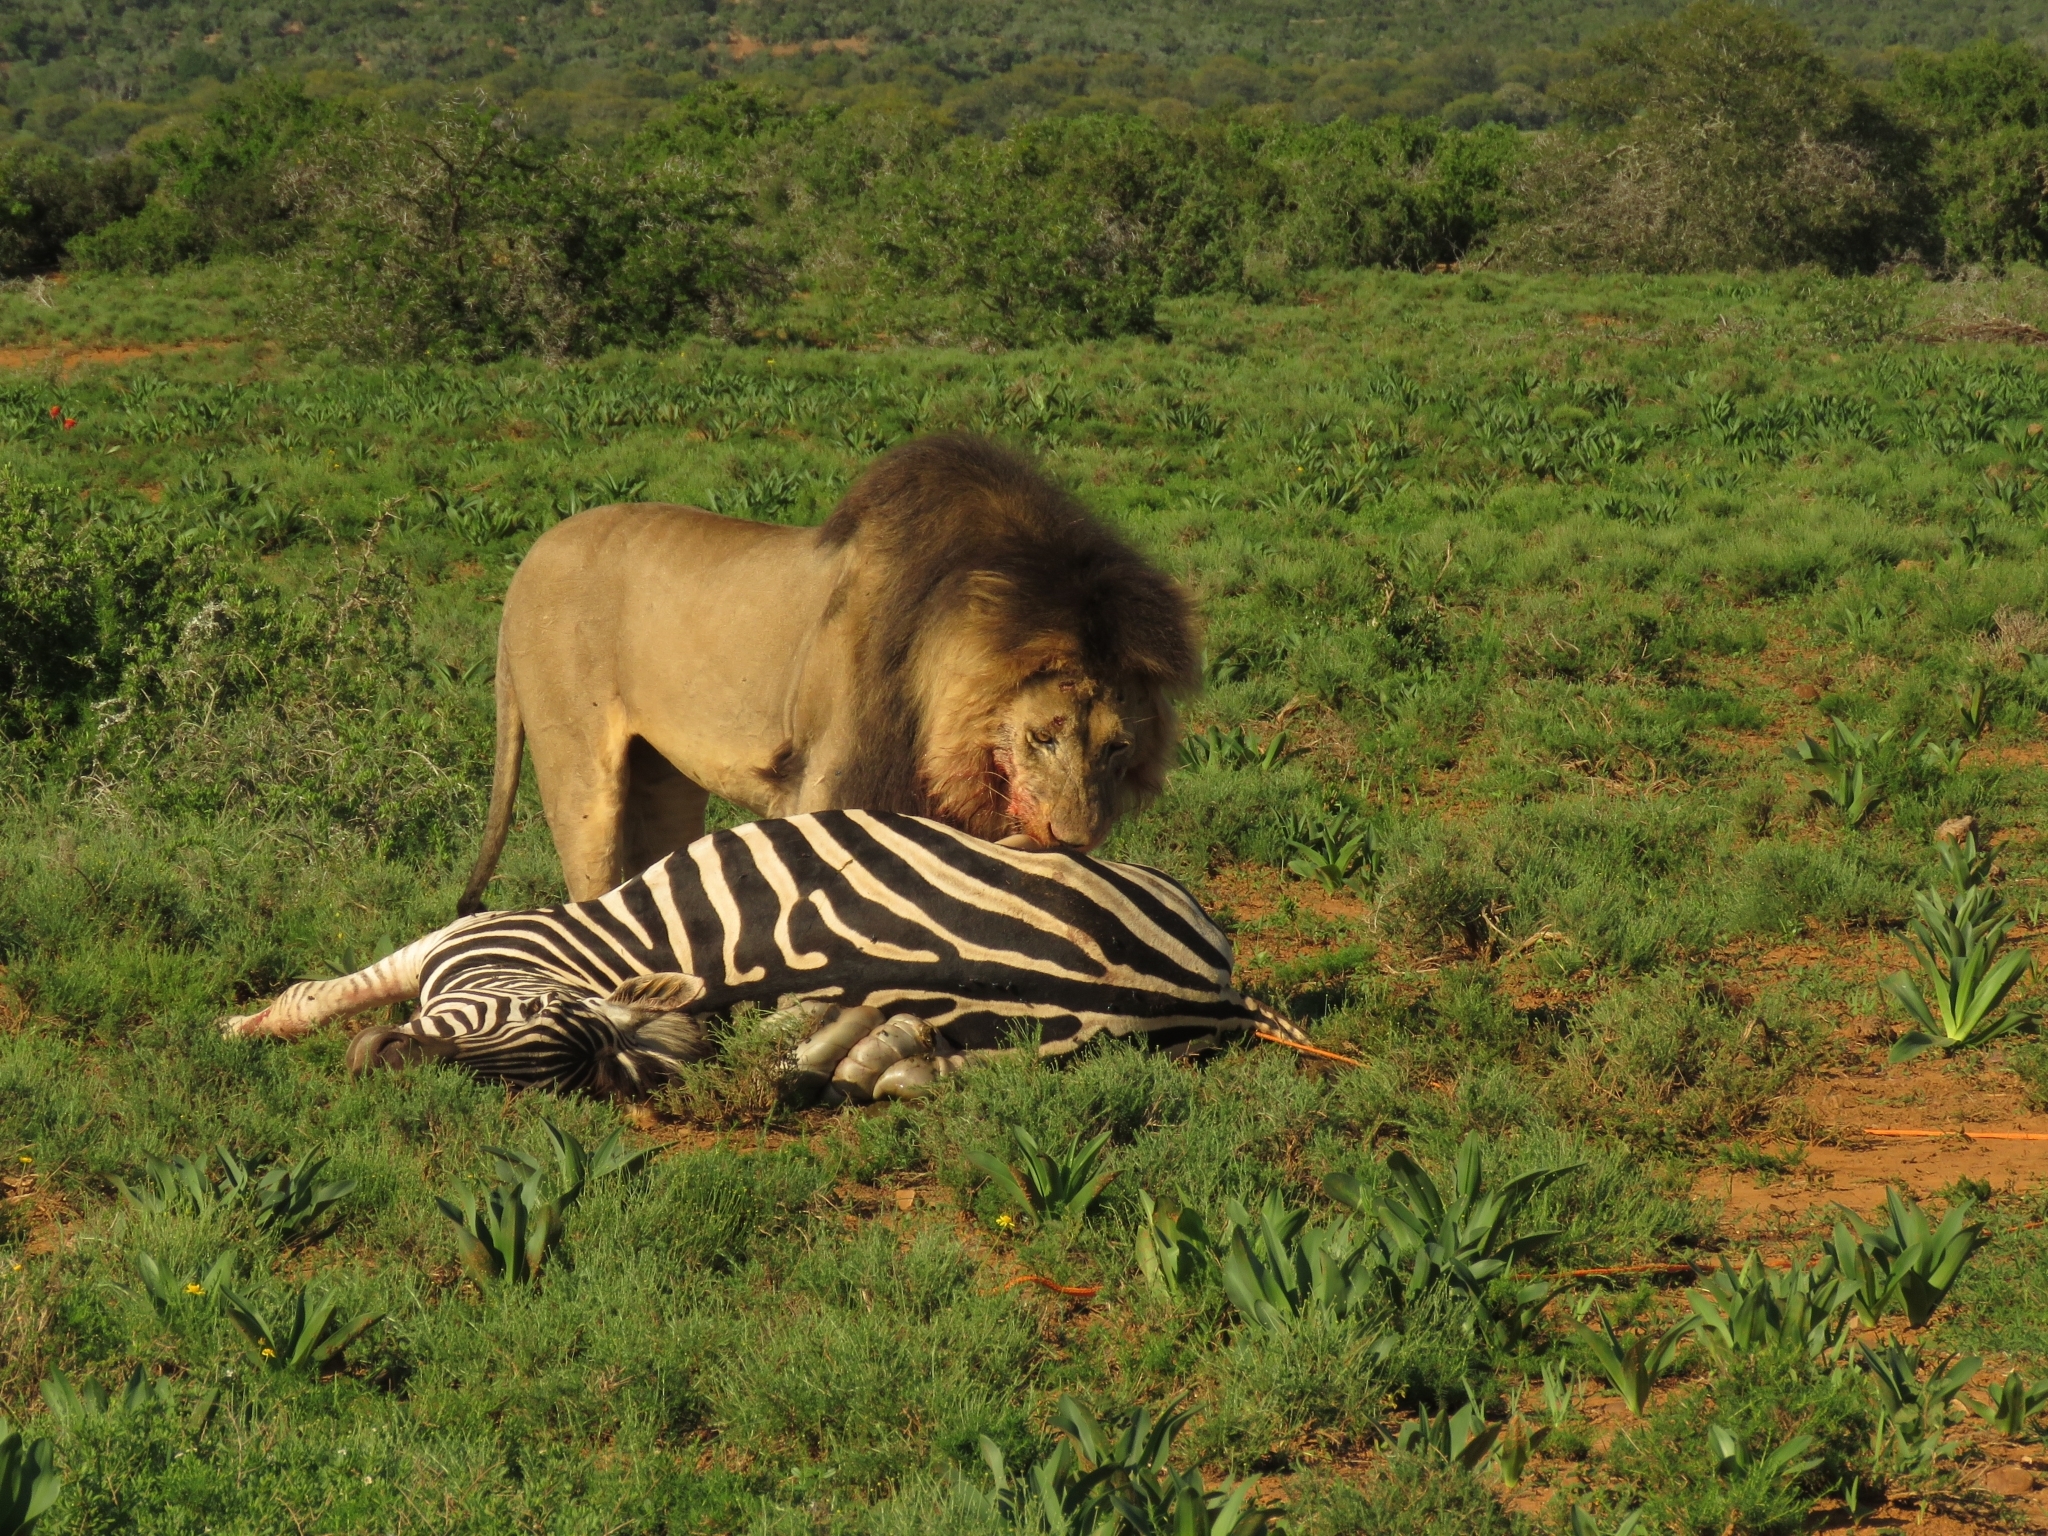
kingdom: Animalia
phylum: Chordata
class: Mammalia
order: Carnivora
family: Felidae
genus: Panthera
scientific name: Panthera leo
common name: Lion
